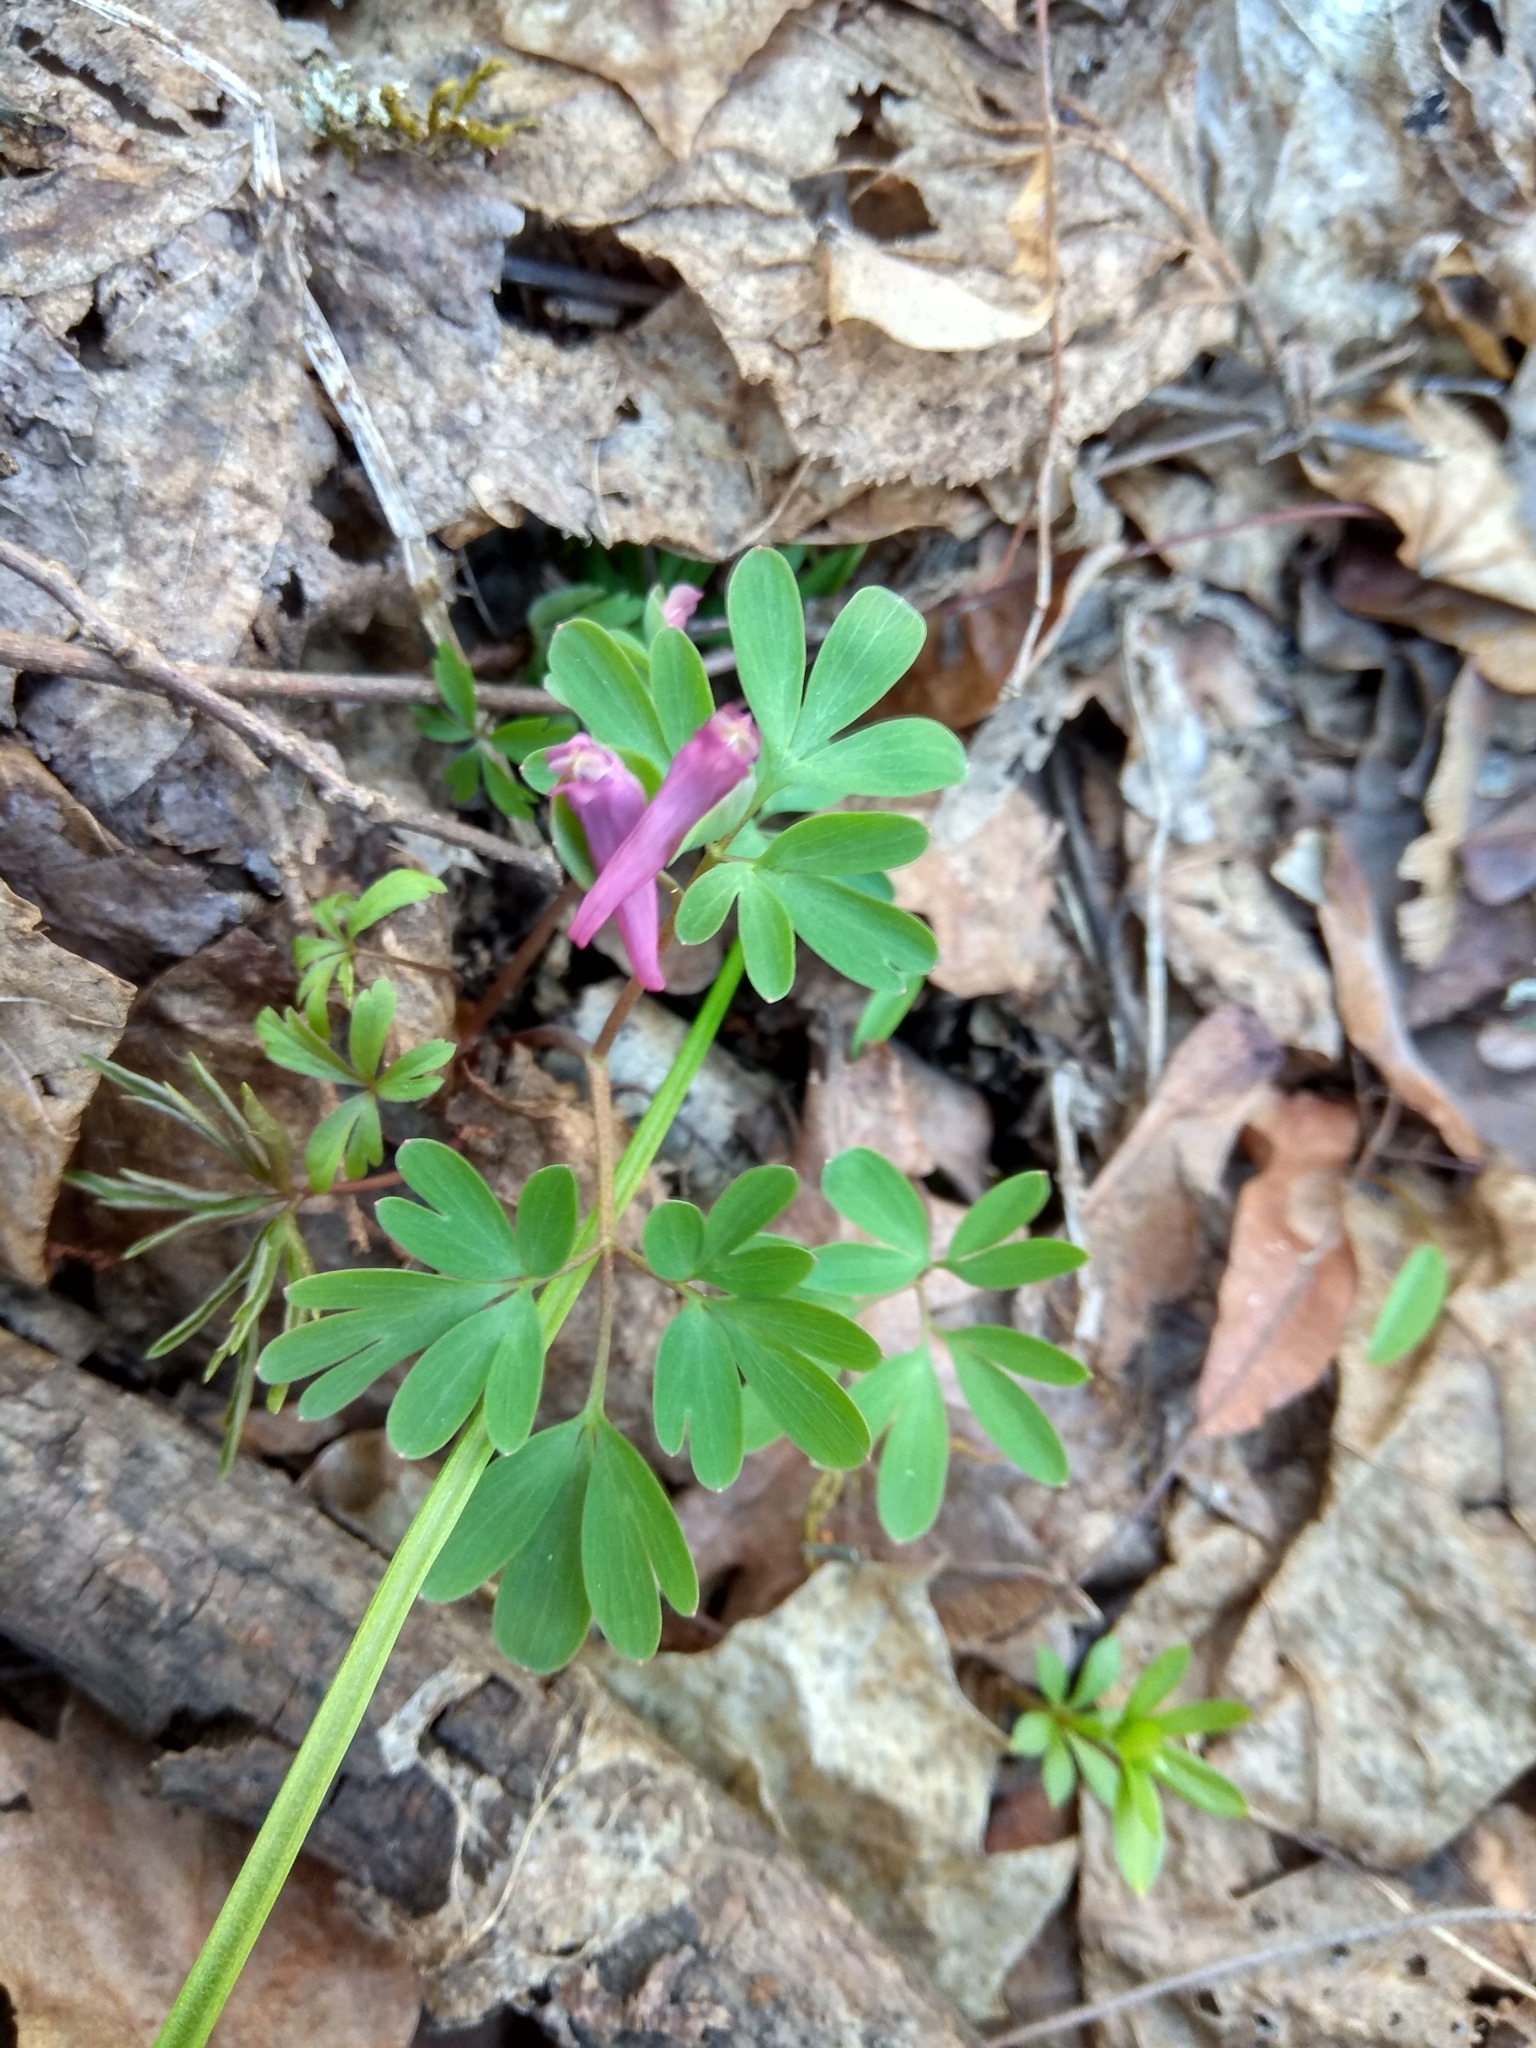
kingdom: Plantae
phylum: Tracheophyta
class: Magnoliopsida
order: Ranunculales
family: Papaveraceae
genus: Corydalis
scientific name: Corydalis intermedia
